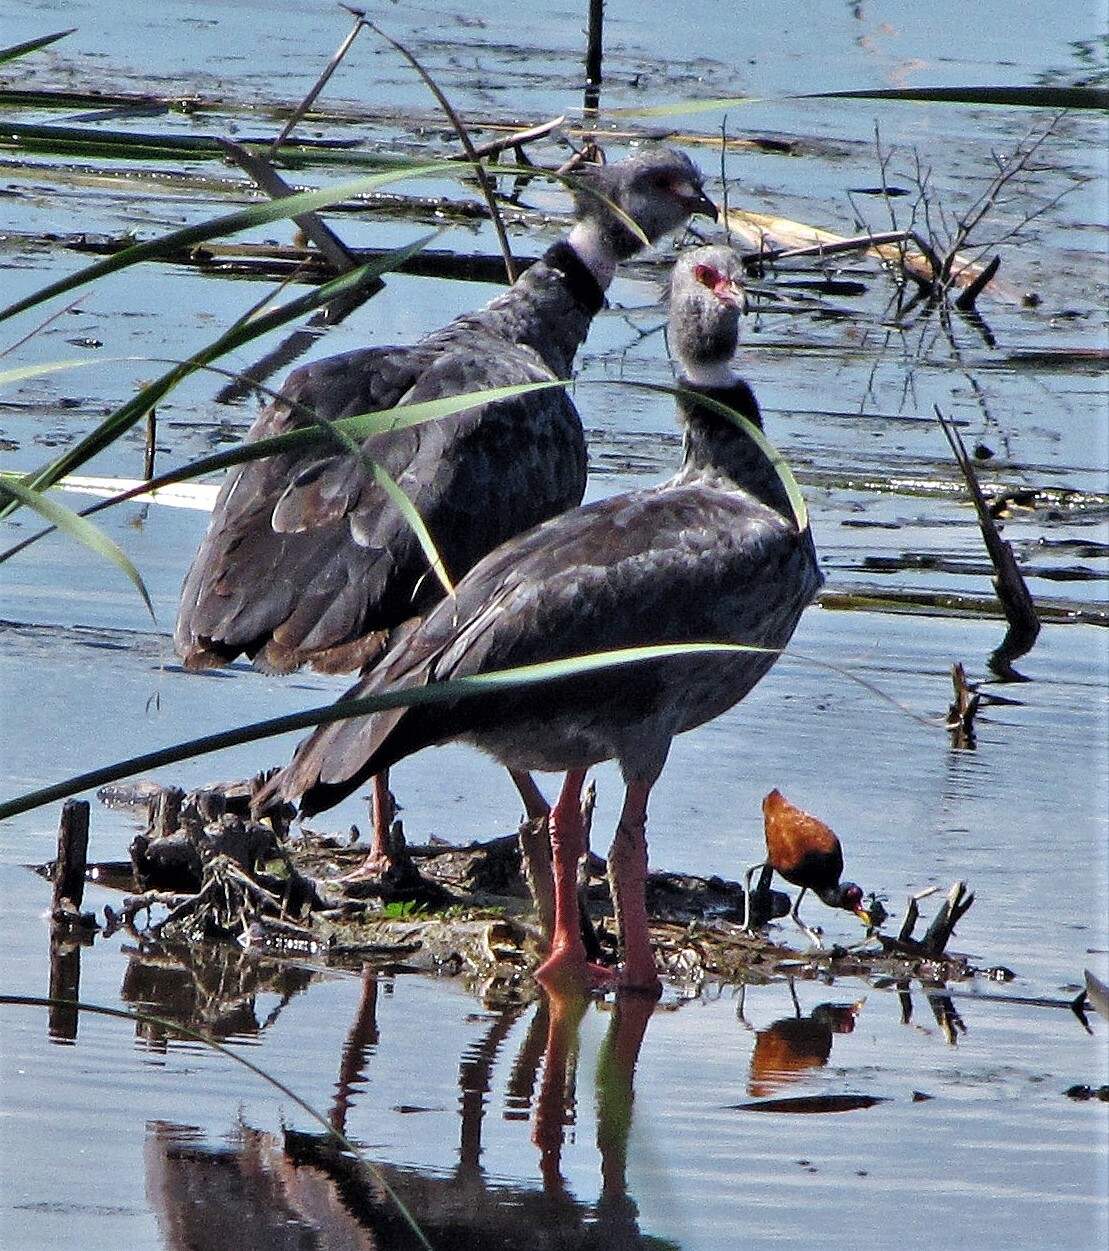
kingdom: Animalia
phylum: Chordata
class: Aves
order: Anseriformes
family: Anhimidae
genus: Chauna
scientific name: Chauna torquata
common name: Southern screamer
